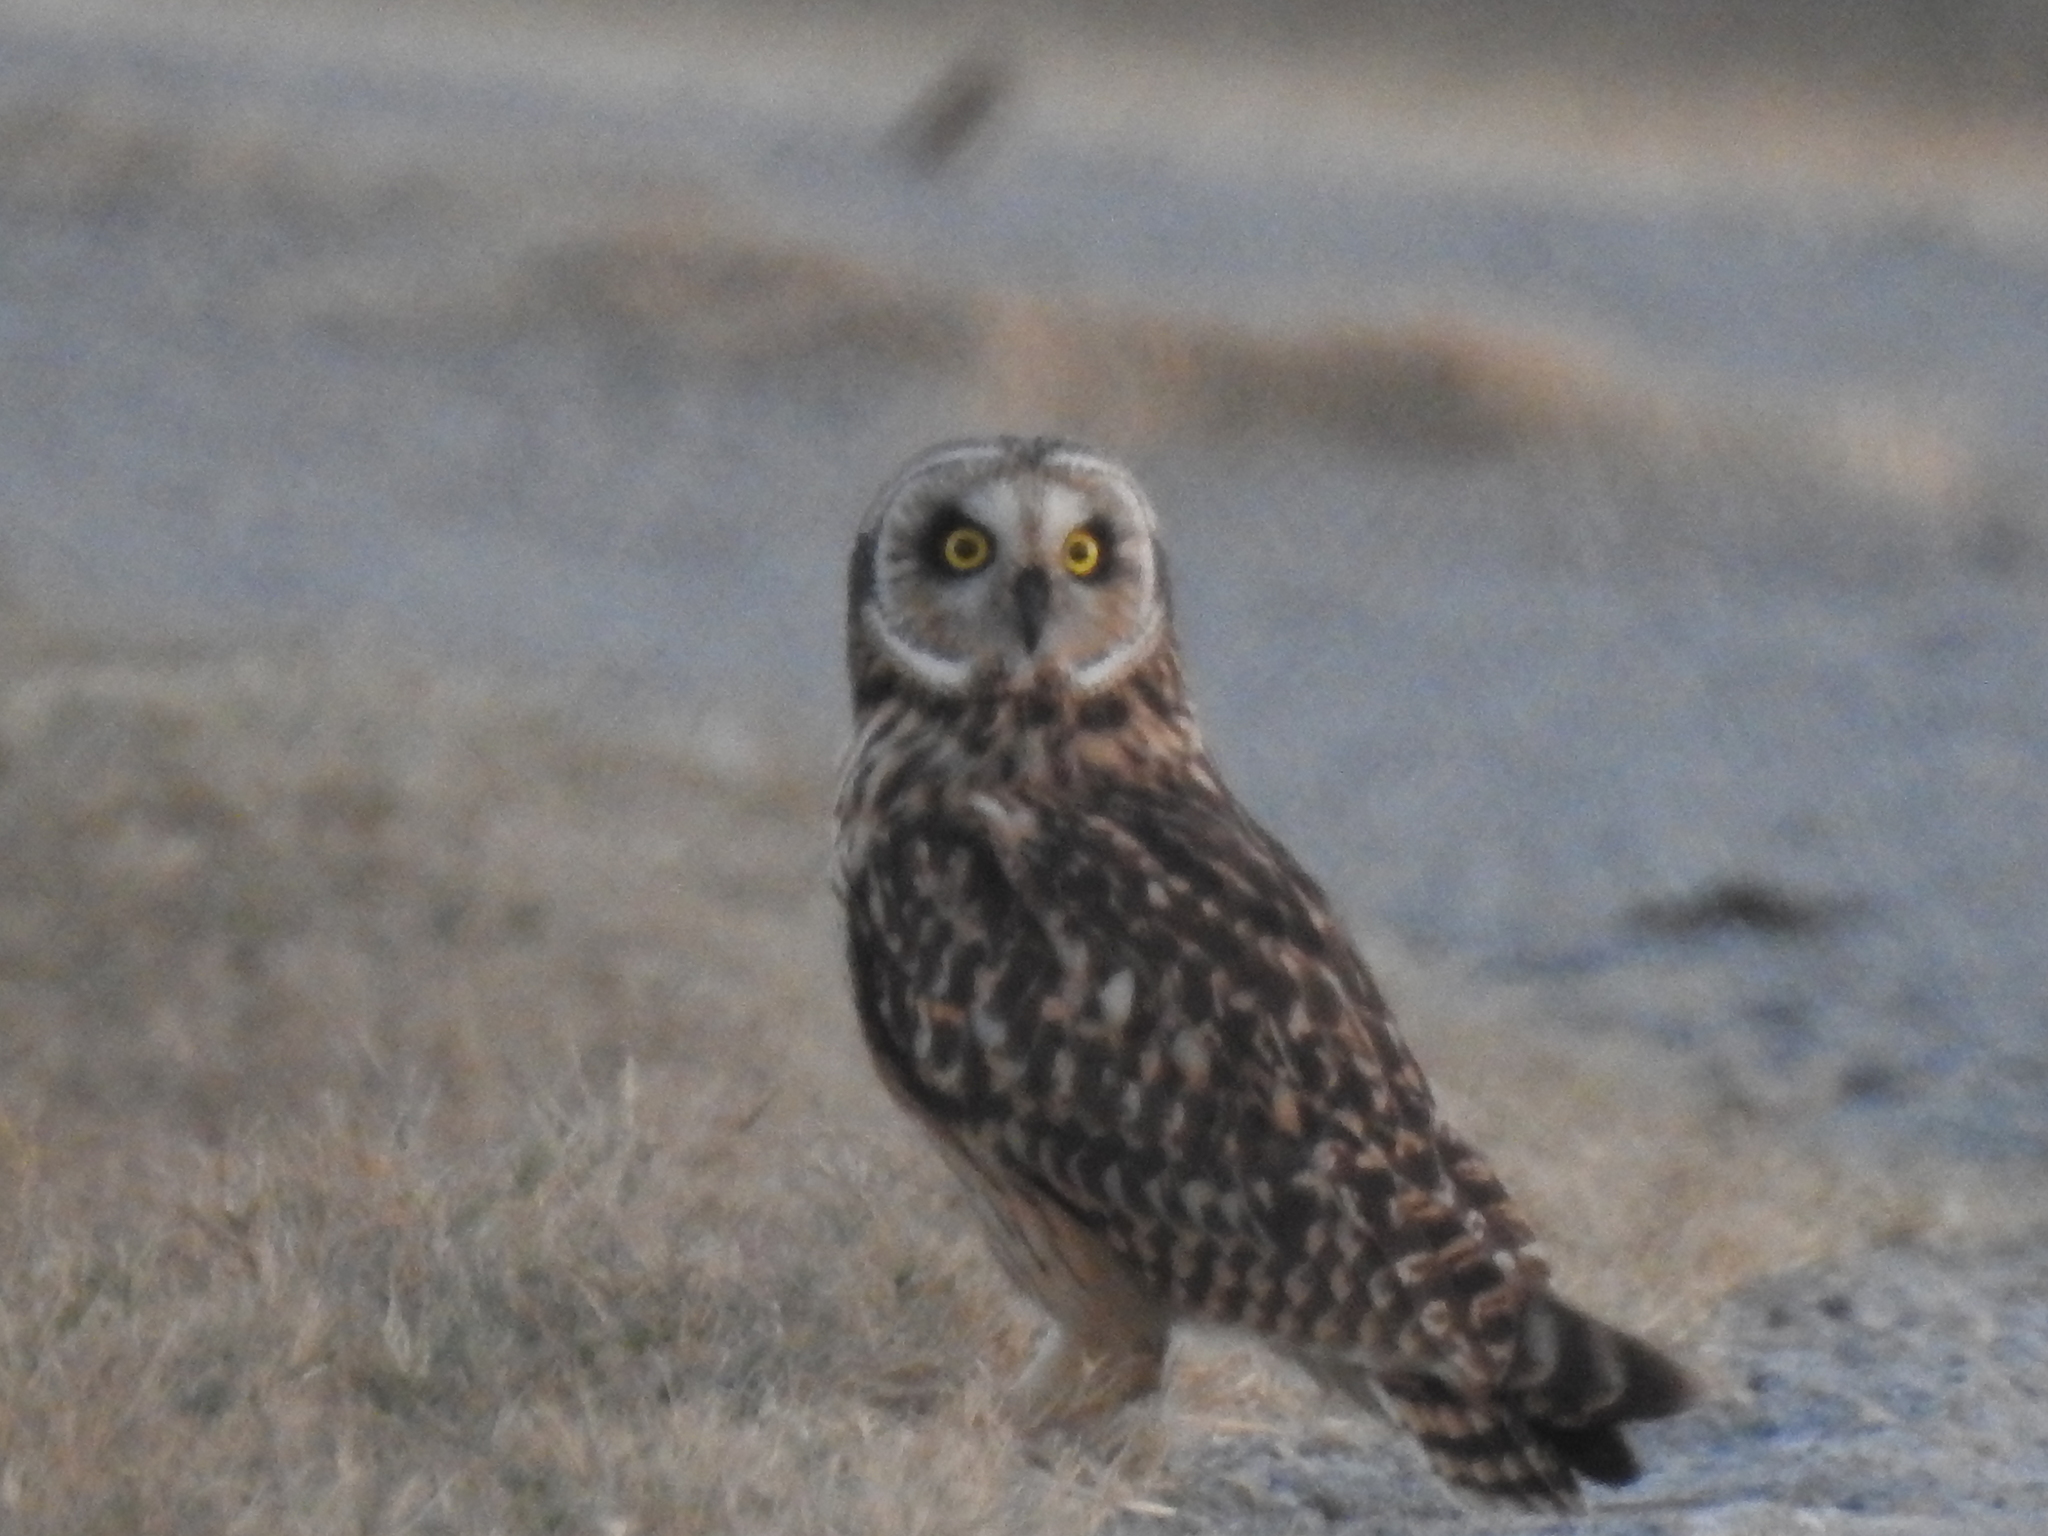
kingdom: Animalia
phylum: Chordata
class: Aves
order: Strigiformes
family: Strigidae
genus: Asio
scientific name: Asio flammeus
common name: Short-eared owl
